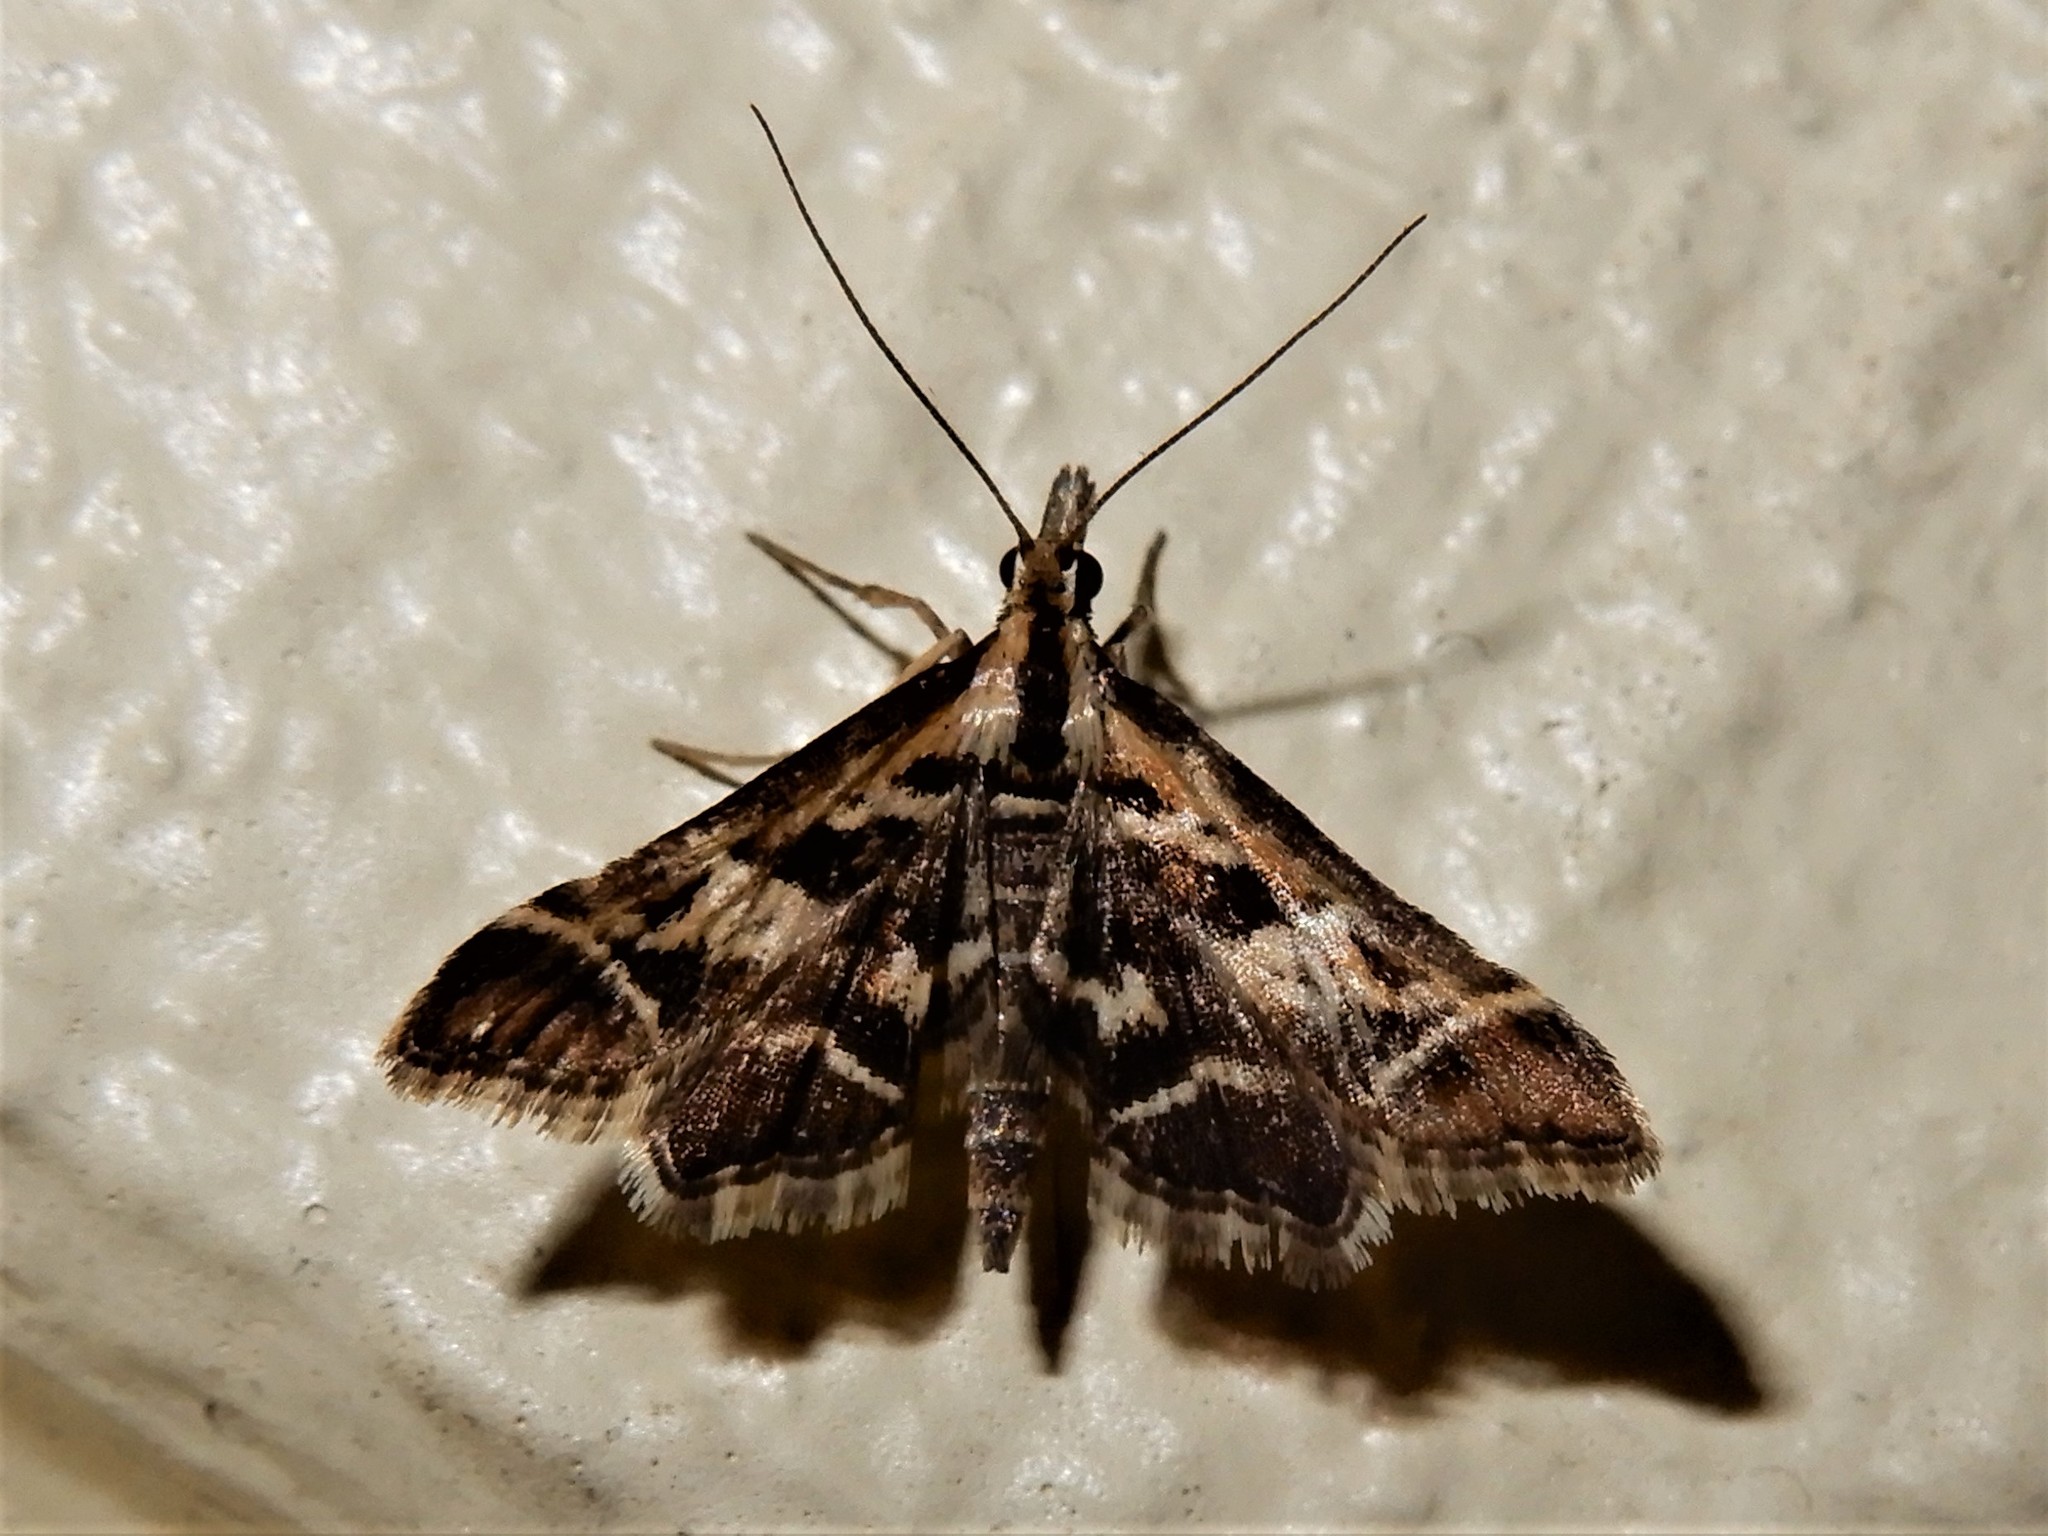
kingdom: Animalia
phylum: Arthropoda
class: Insecta
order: Lepidoptera
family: Crambidae
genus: Diasemia
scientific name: Diasemia grammalis
